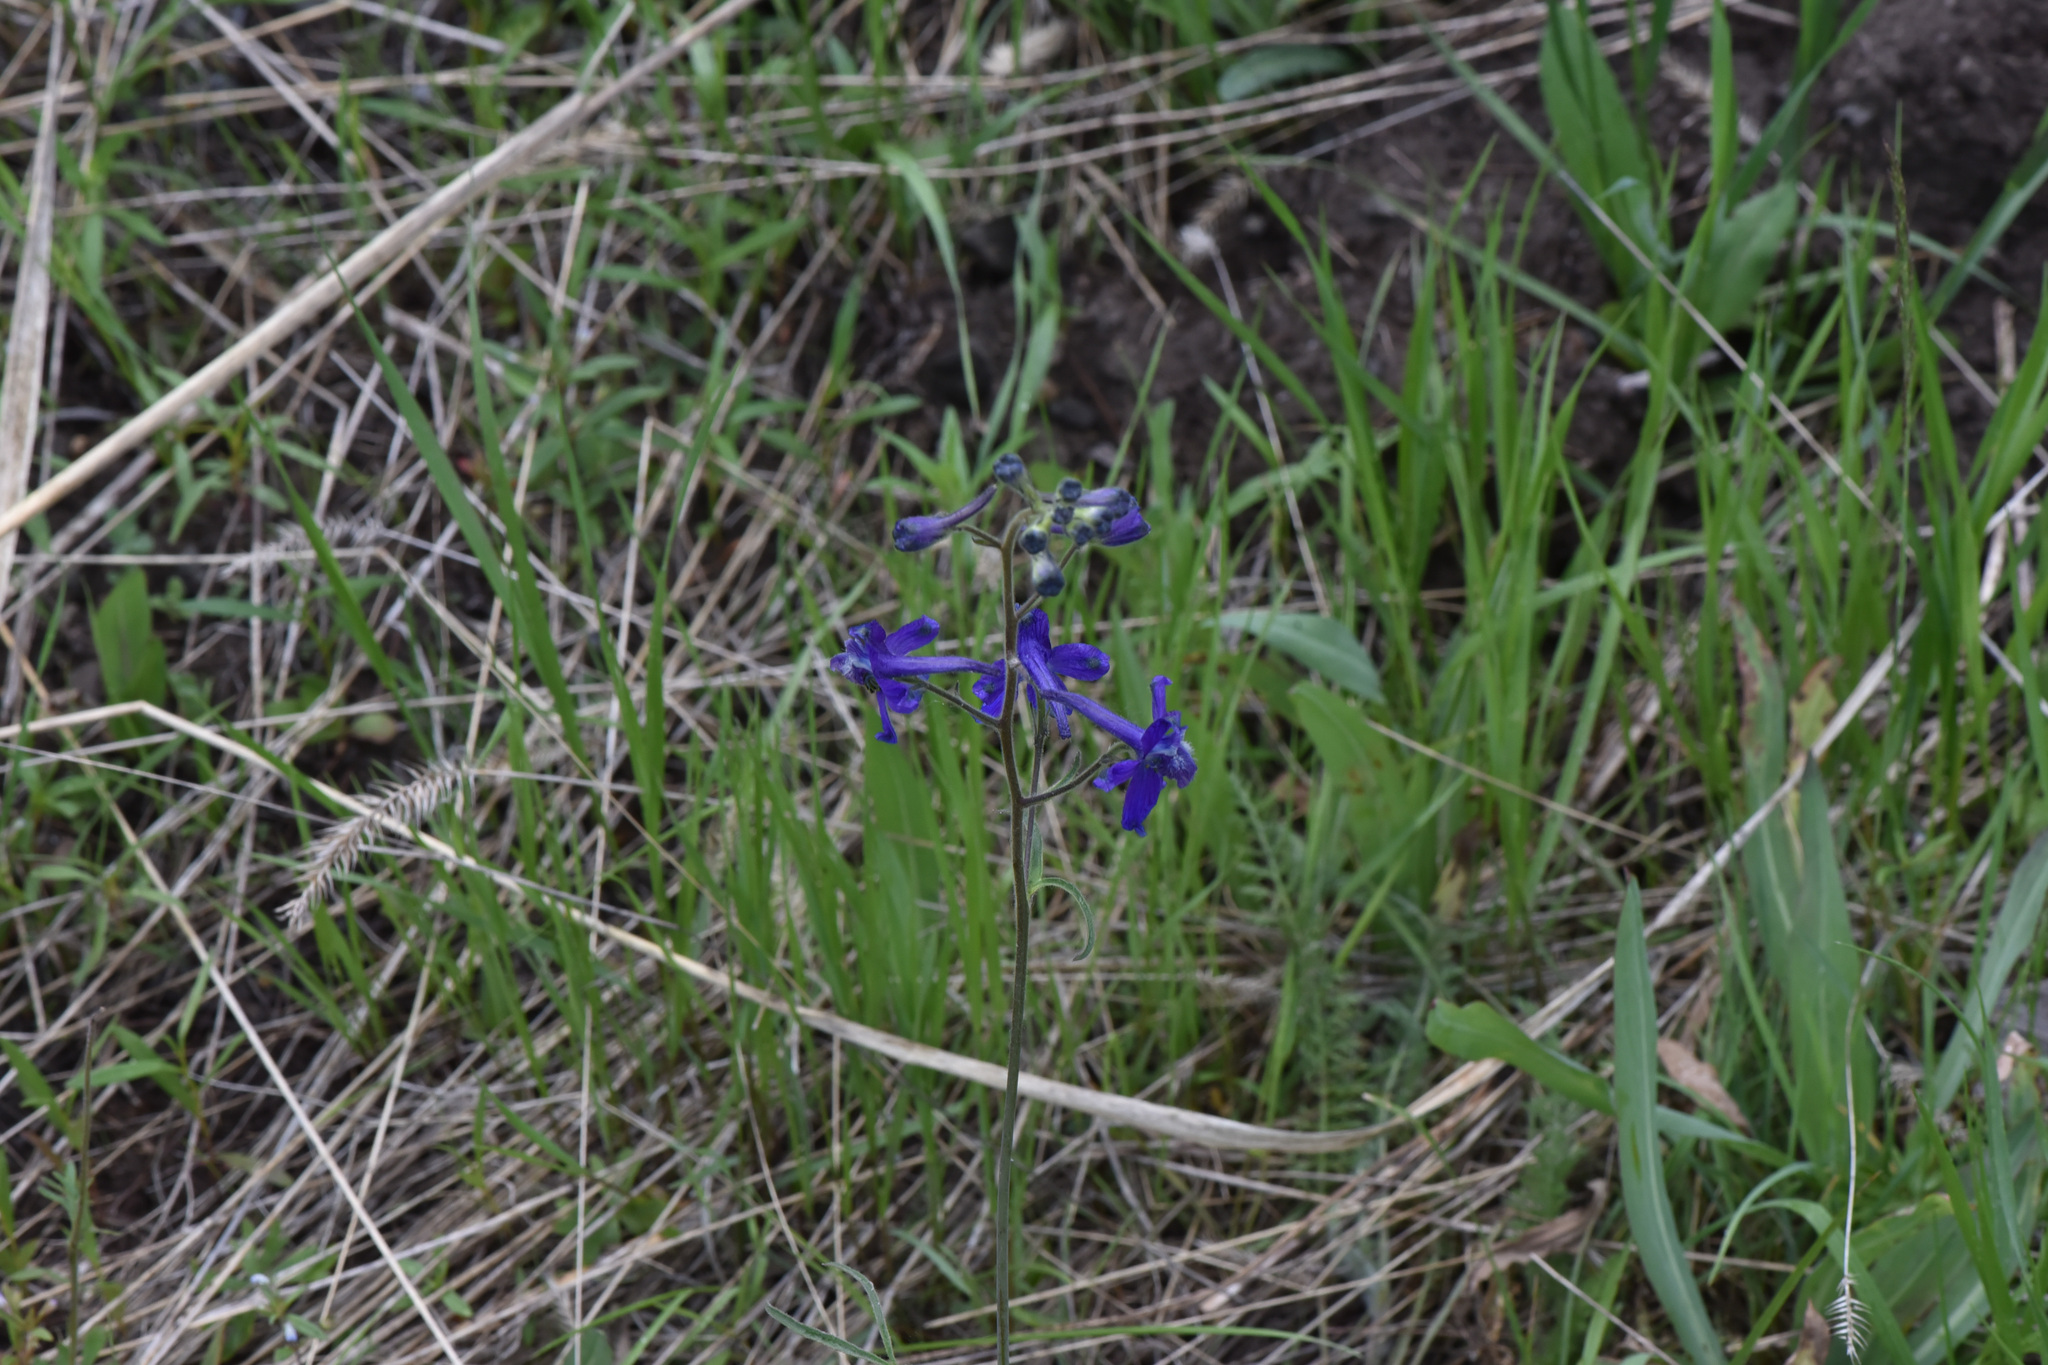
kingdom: Plantae
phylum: Tracheophyta
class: Magnoliopsida
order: Ranunculales
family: Ranunculaceae
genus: Delphinium
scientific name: Delphinium nuttallianum
